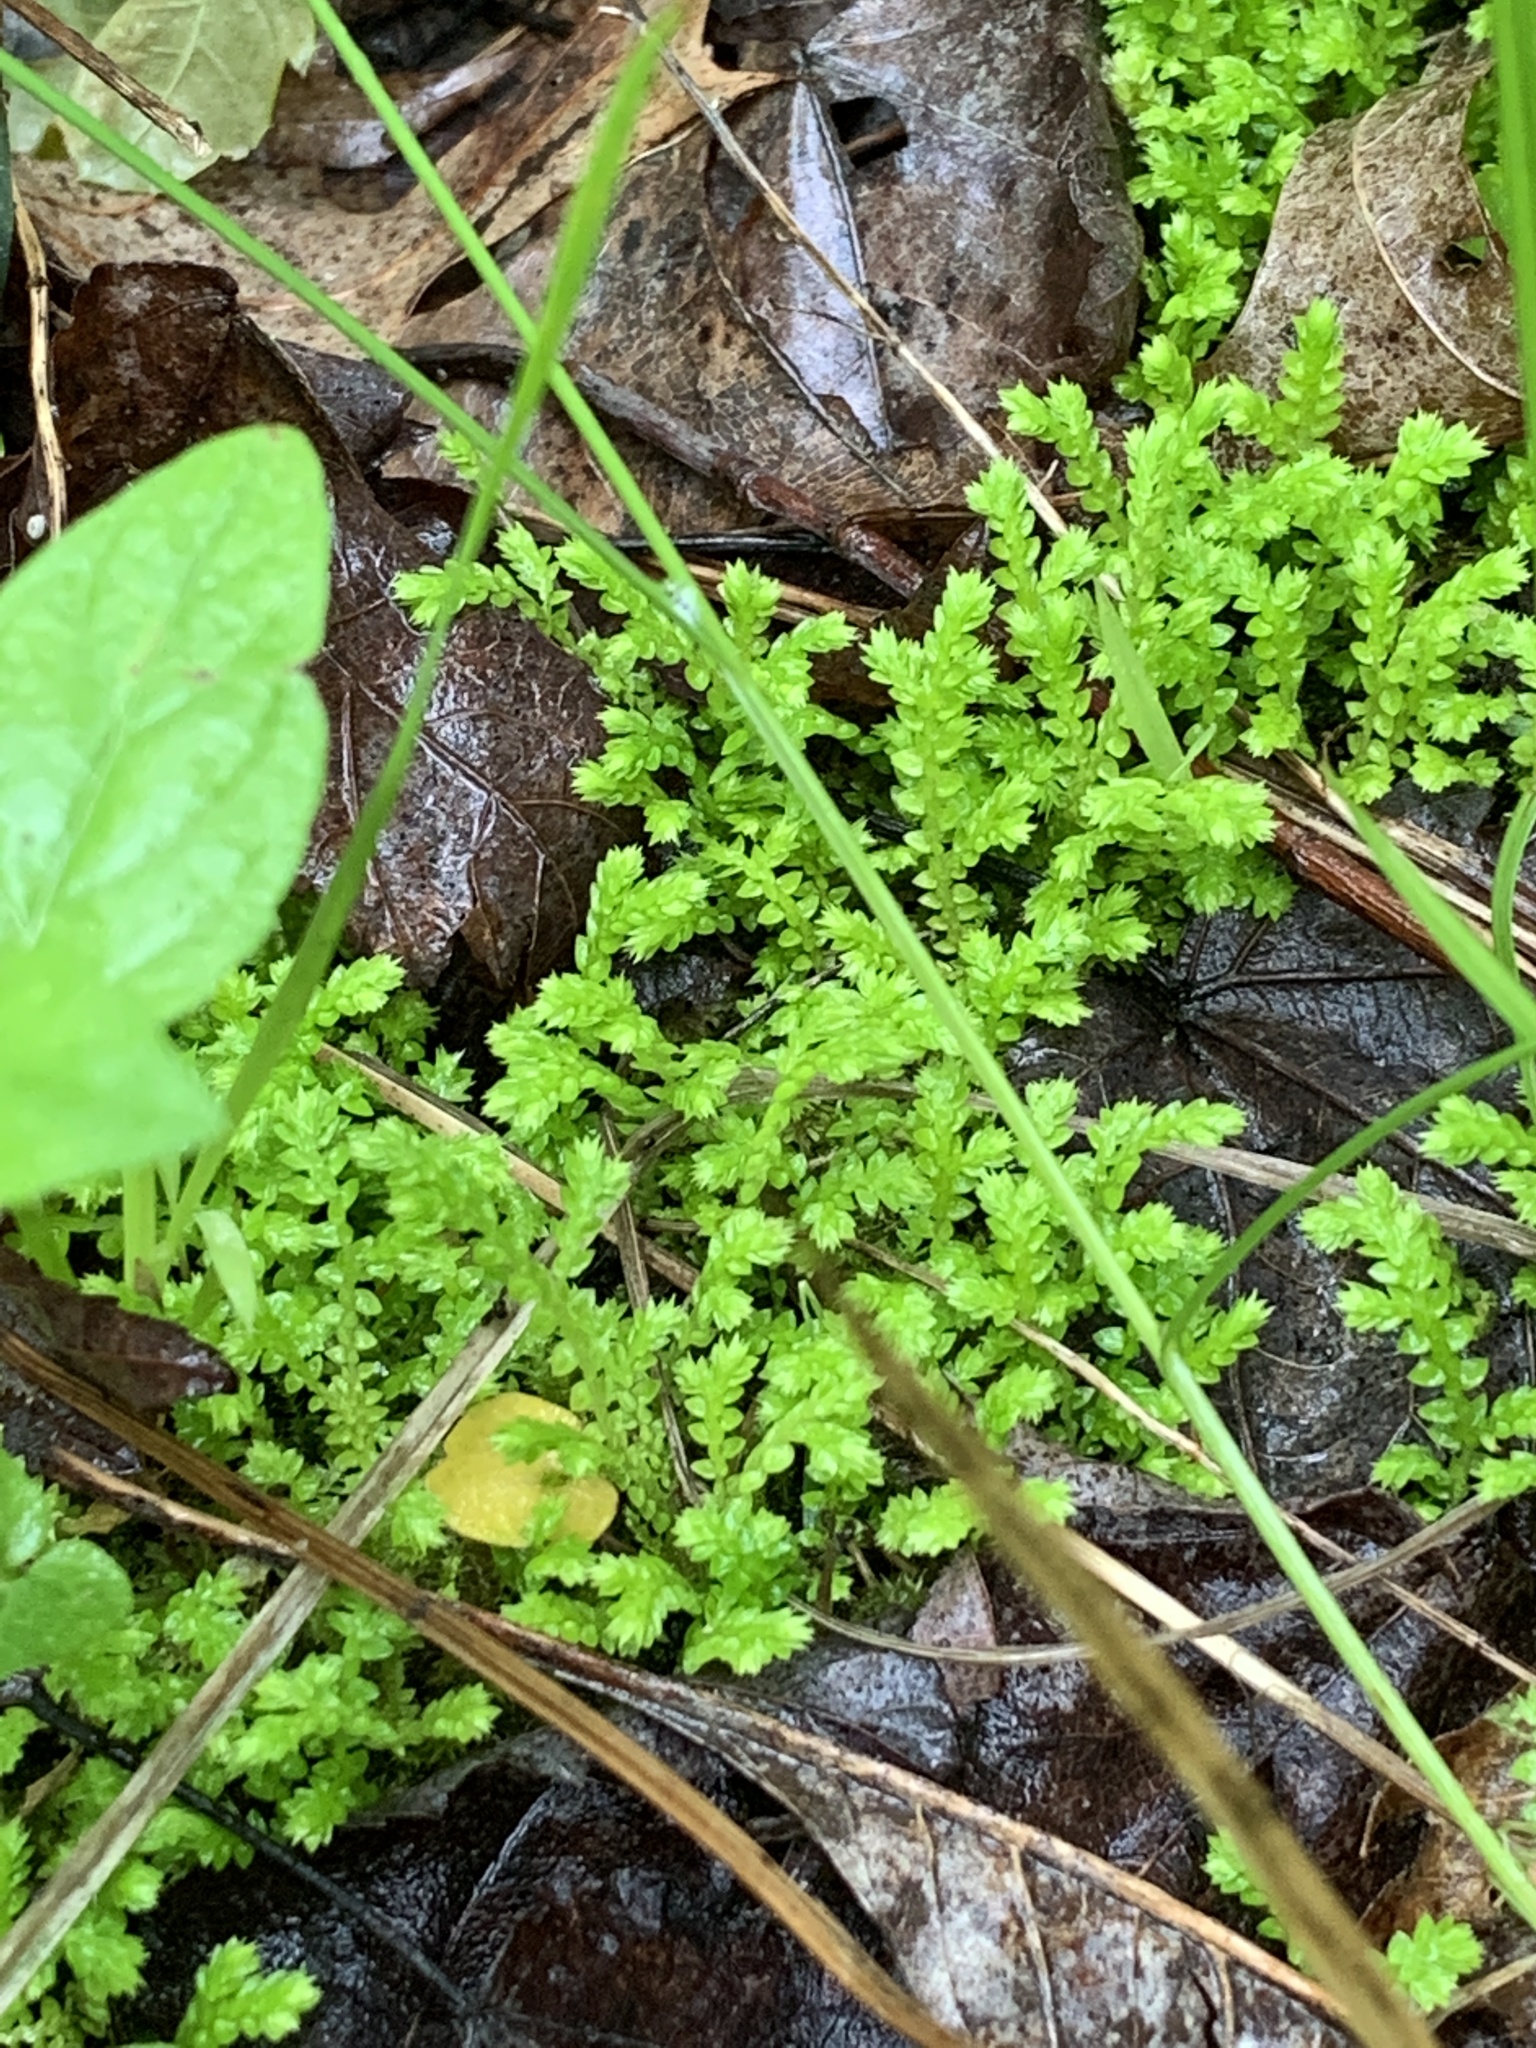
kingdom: Plantae
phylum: Tracheophyta
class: Lycopodiopsida
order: Selaginellales
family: Selaginellaceae
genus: Selaginella
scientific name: Selaginella apoda
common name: Creeping spikemoss
